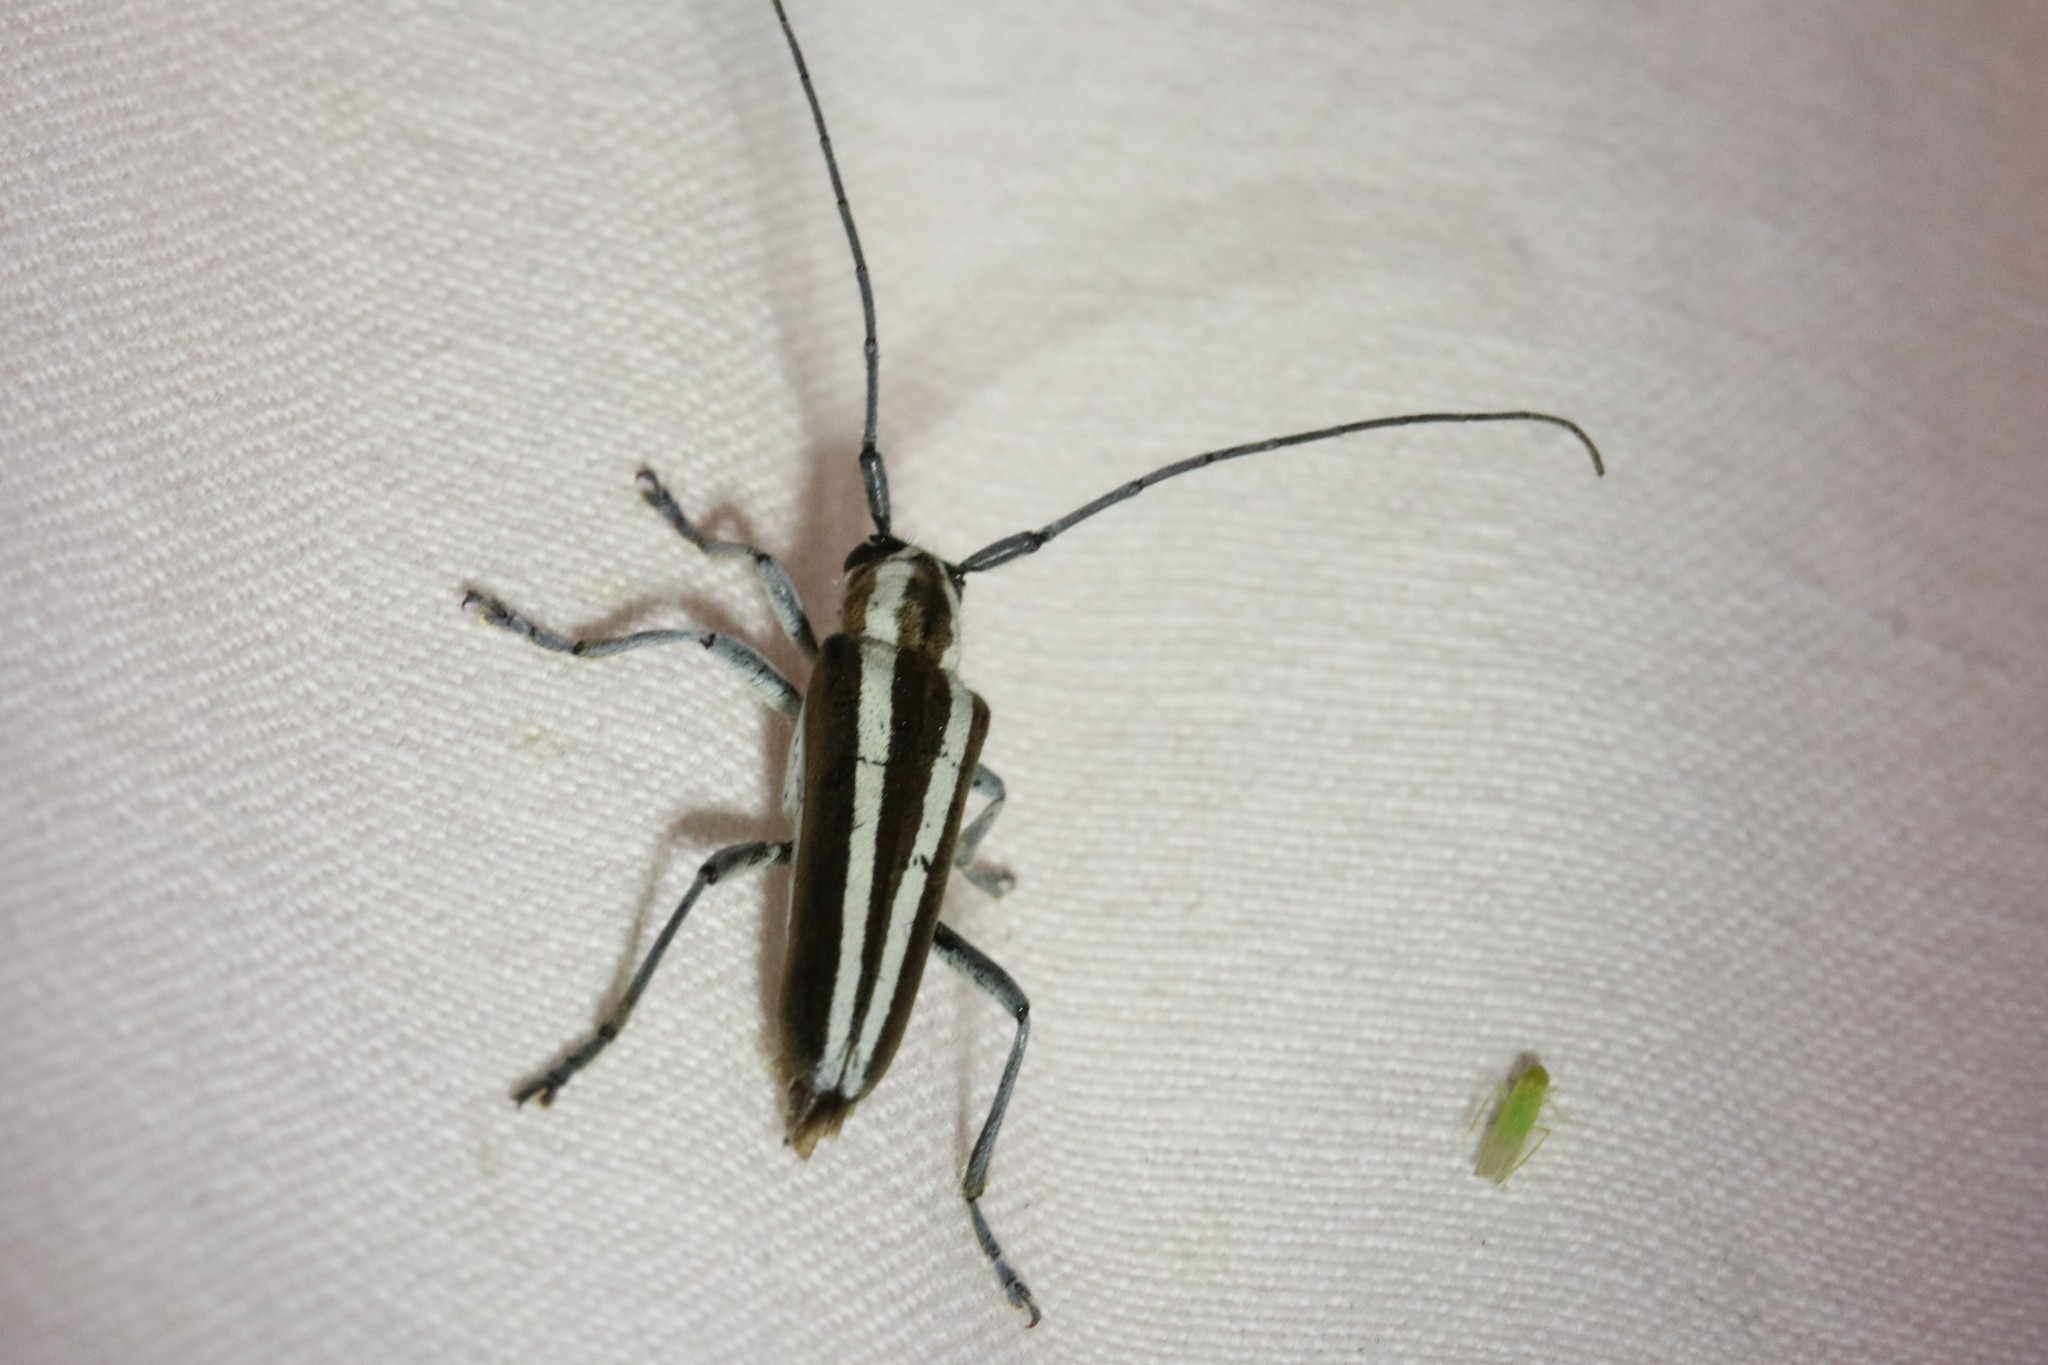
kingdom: Animalia
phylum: Arthropoda
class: Insecta
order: Coleoptera
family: Cerambycidae
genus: Saperda
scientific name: Saperda candida
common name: Round-headed borer
